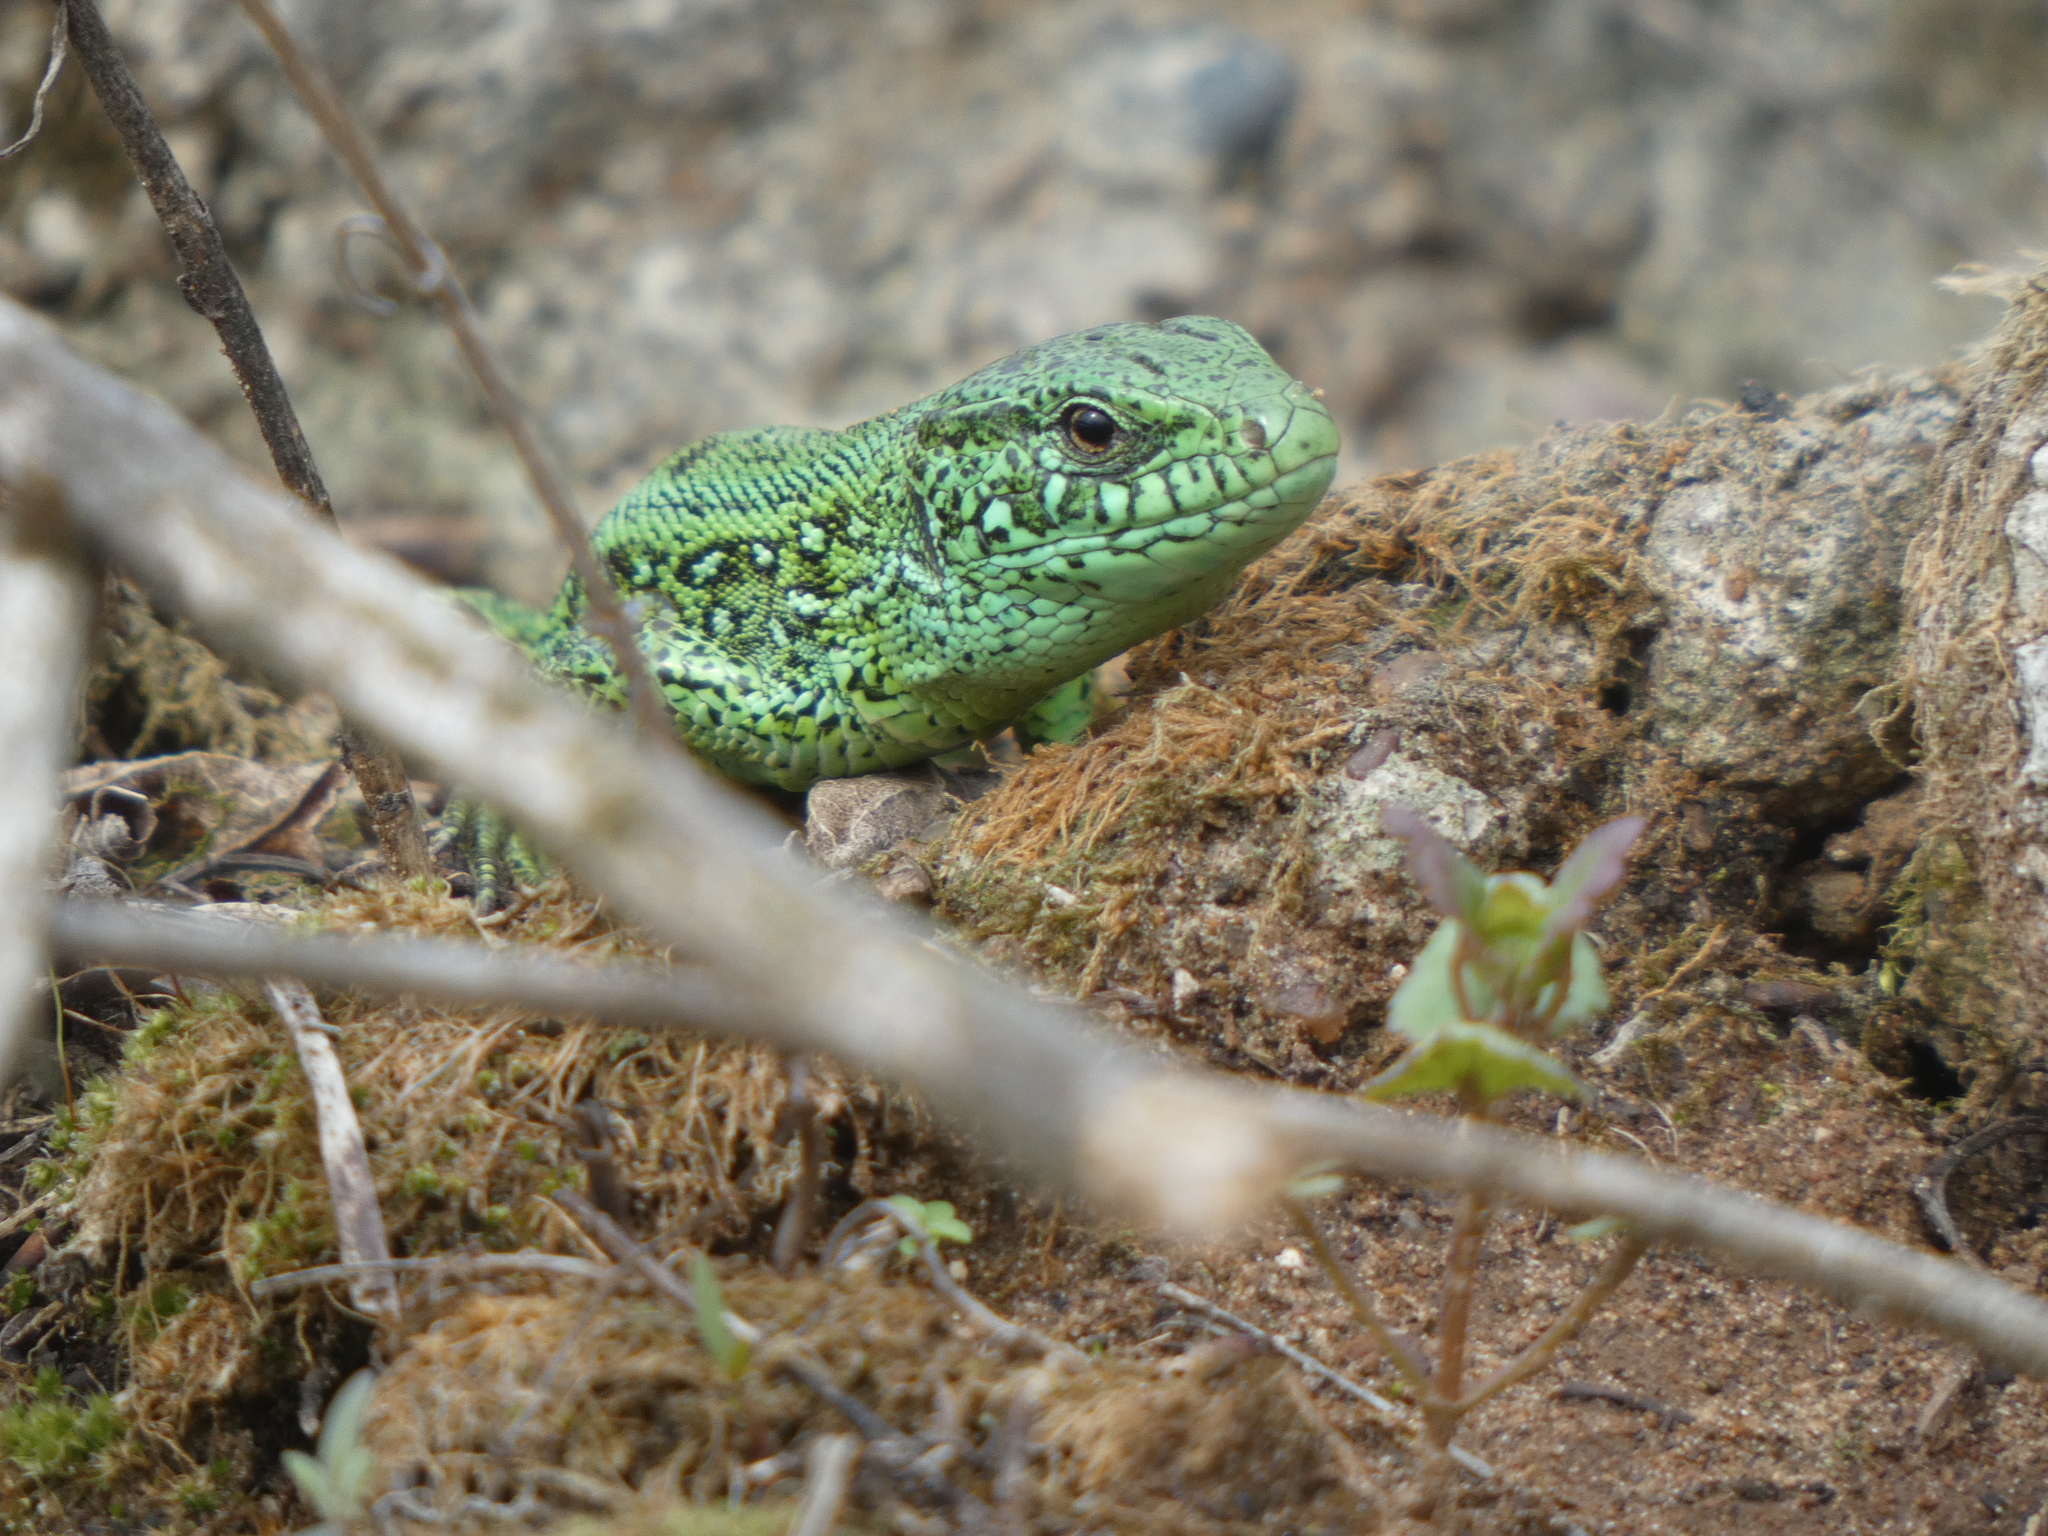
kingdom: Animalia
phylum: Chordata
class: Squamata
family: Lacertidae
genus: Lacerta
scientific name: Lacerta agilis
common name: Sand lizard
